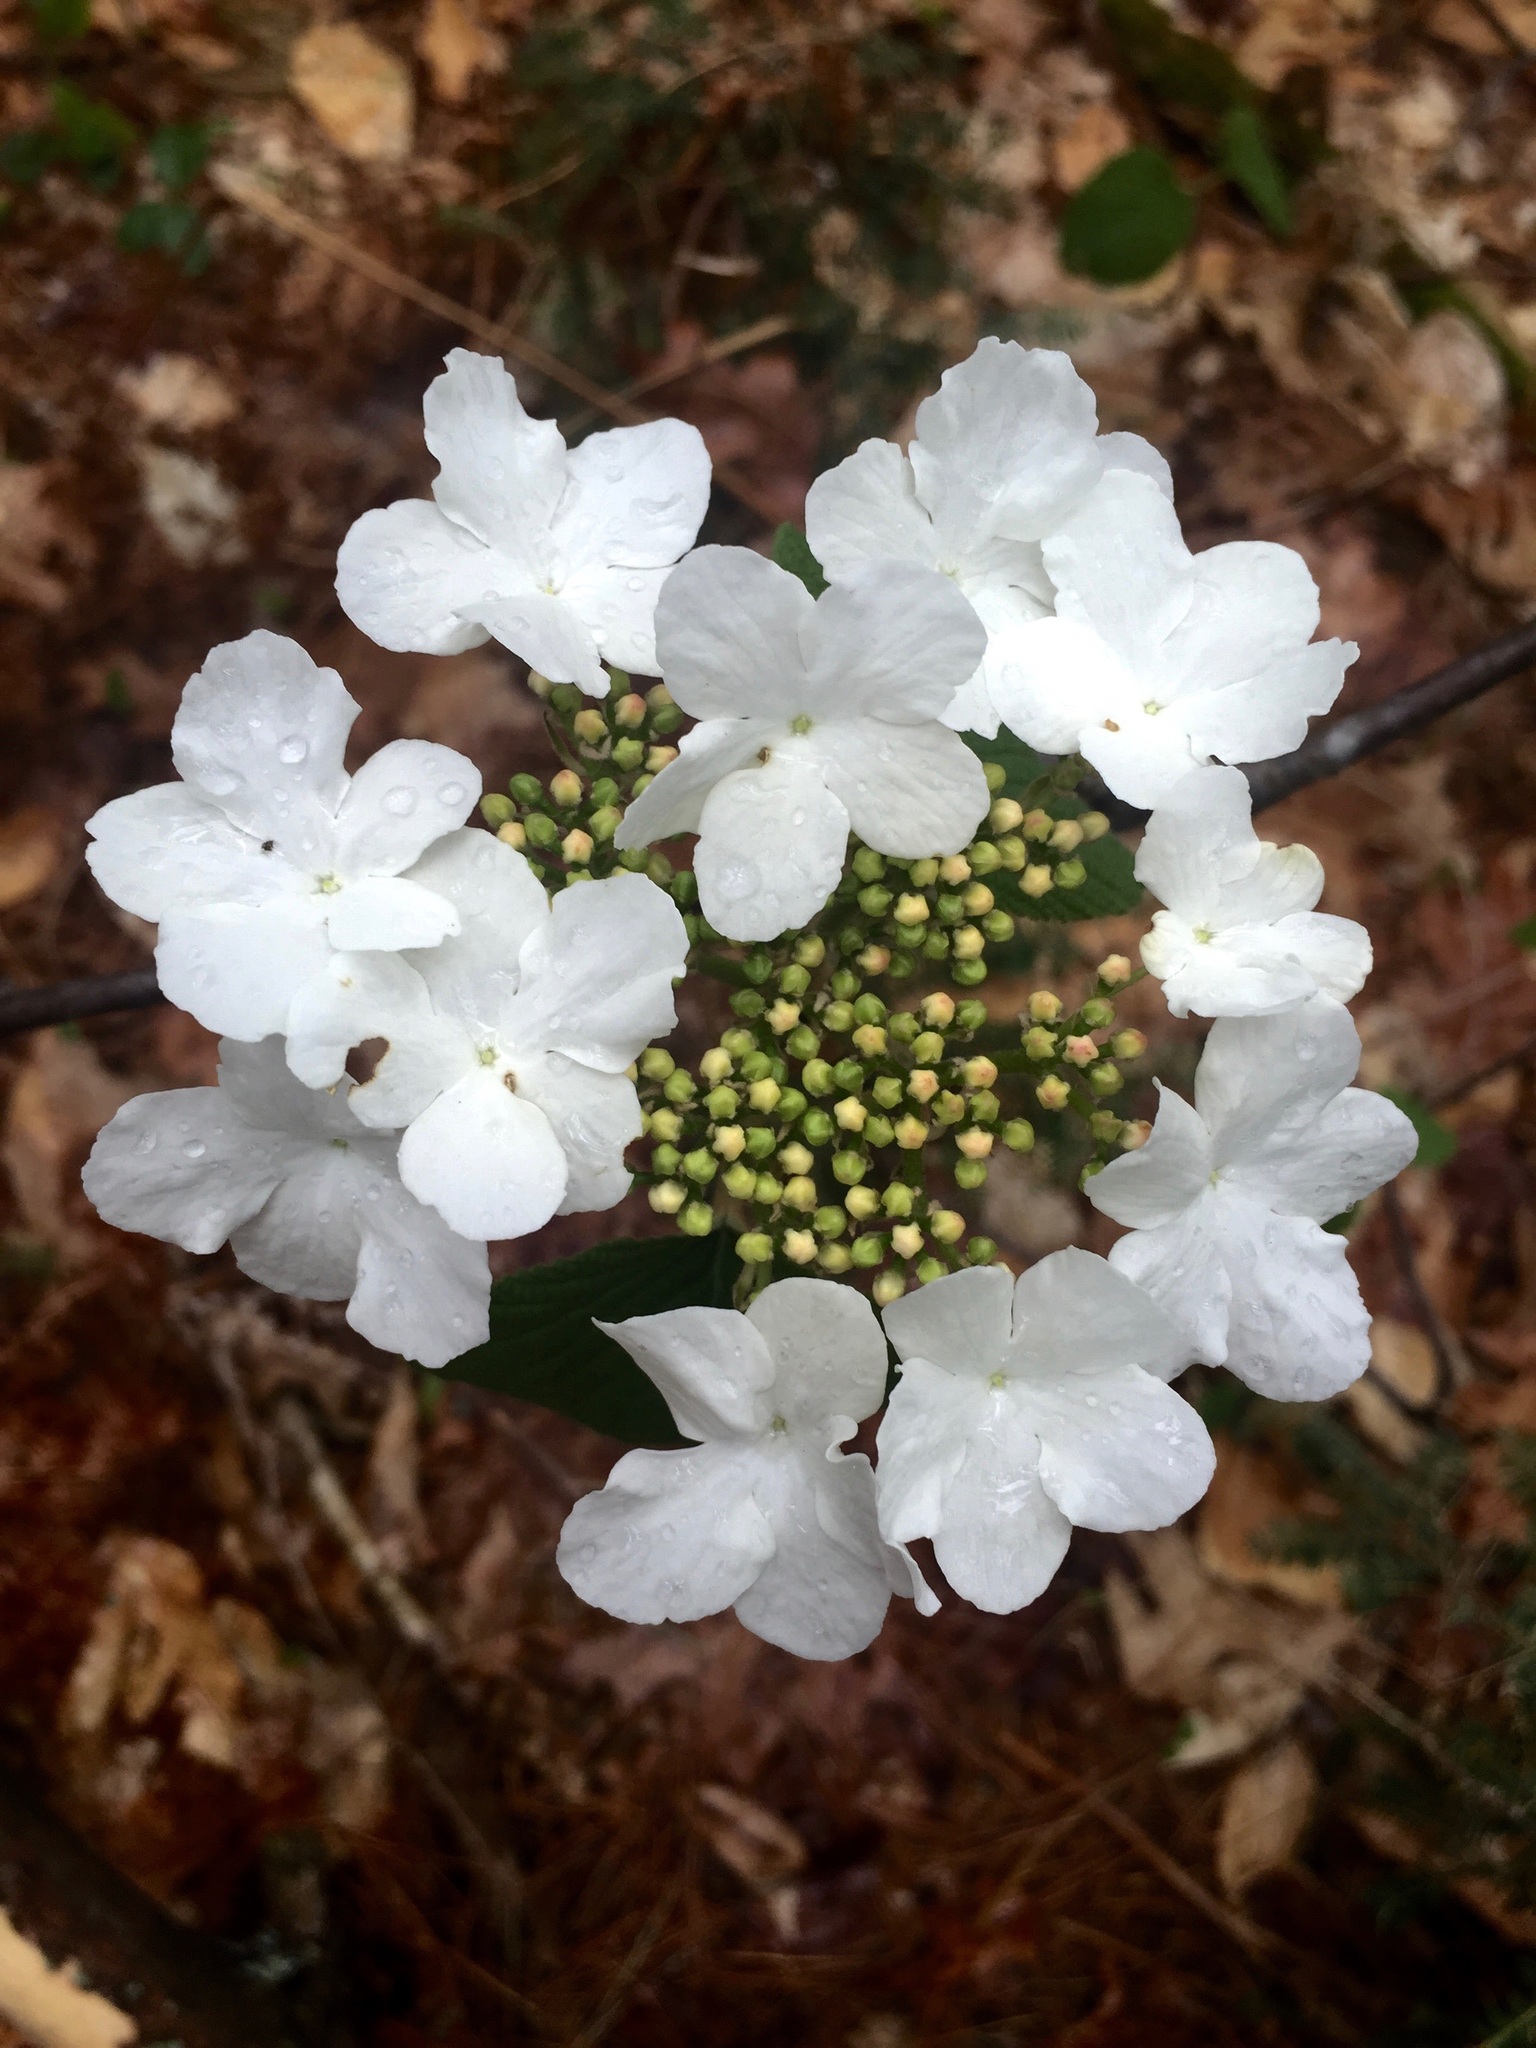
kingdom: Plantae
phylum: Tracheophyta
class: Magnoliopsida
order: Dipsacales
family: Viburnaceae
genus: Viburnum
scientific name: Viburnum lantanoides
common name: Hobblebush
